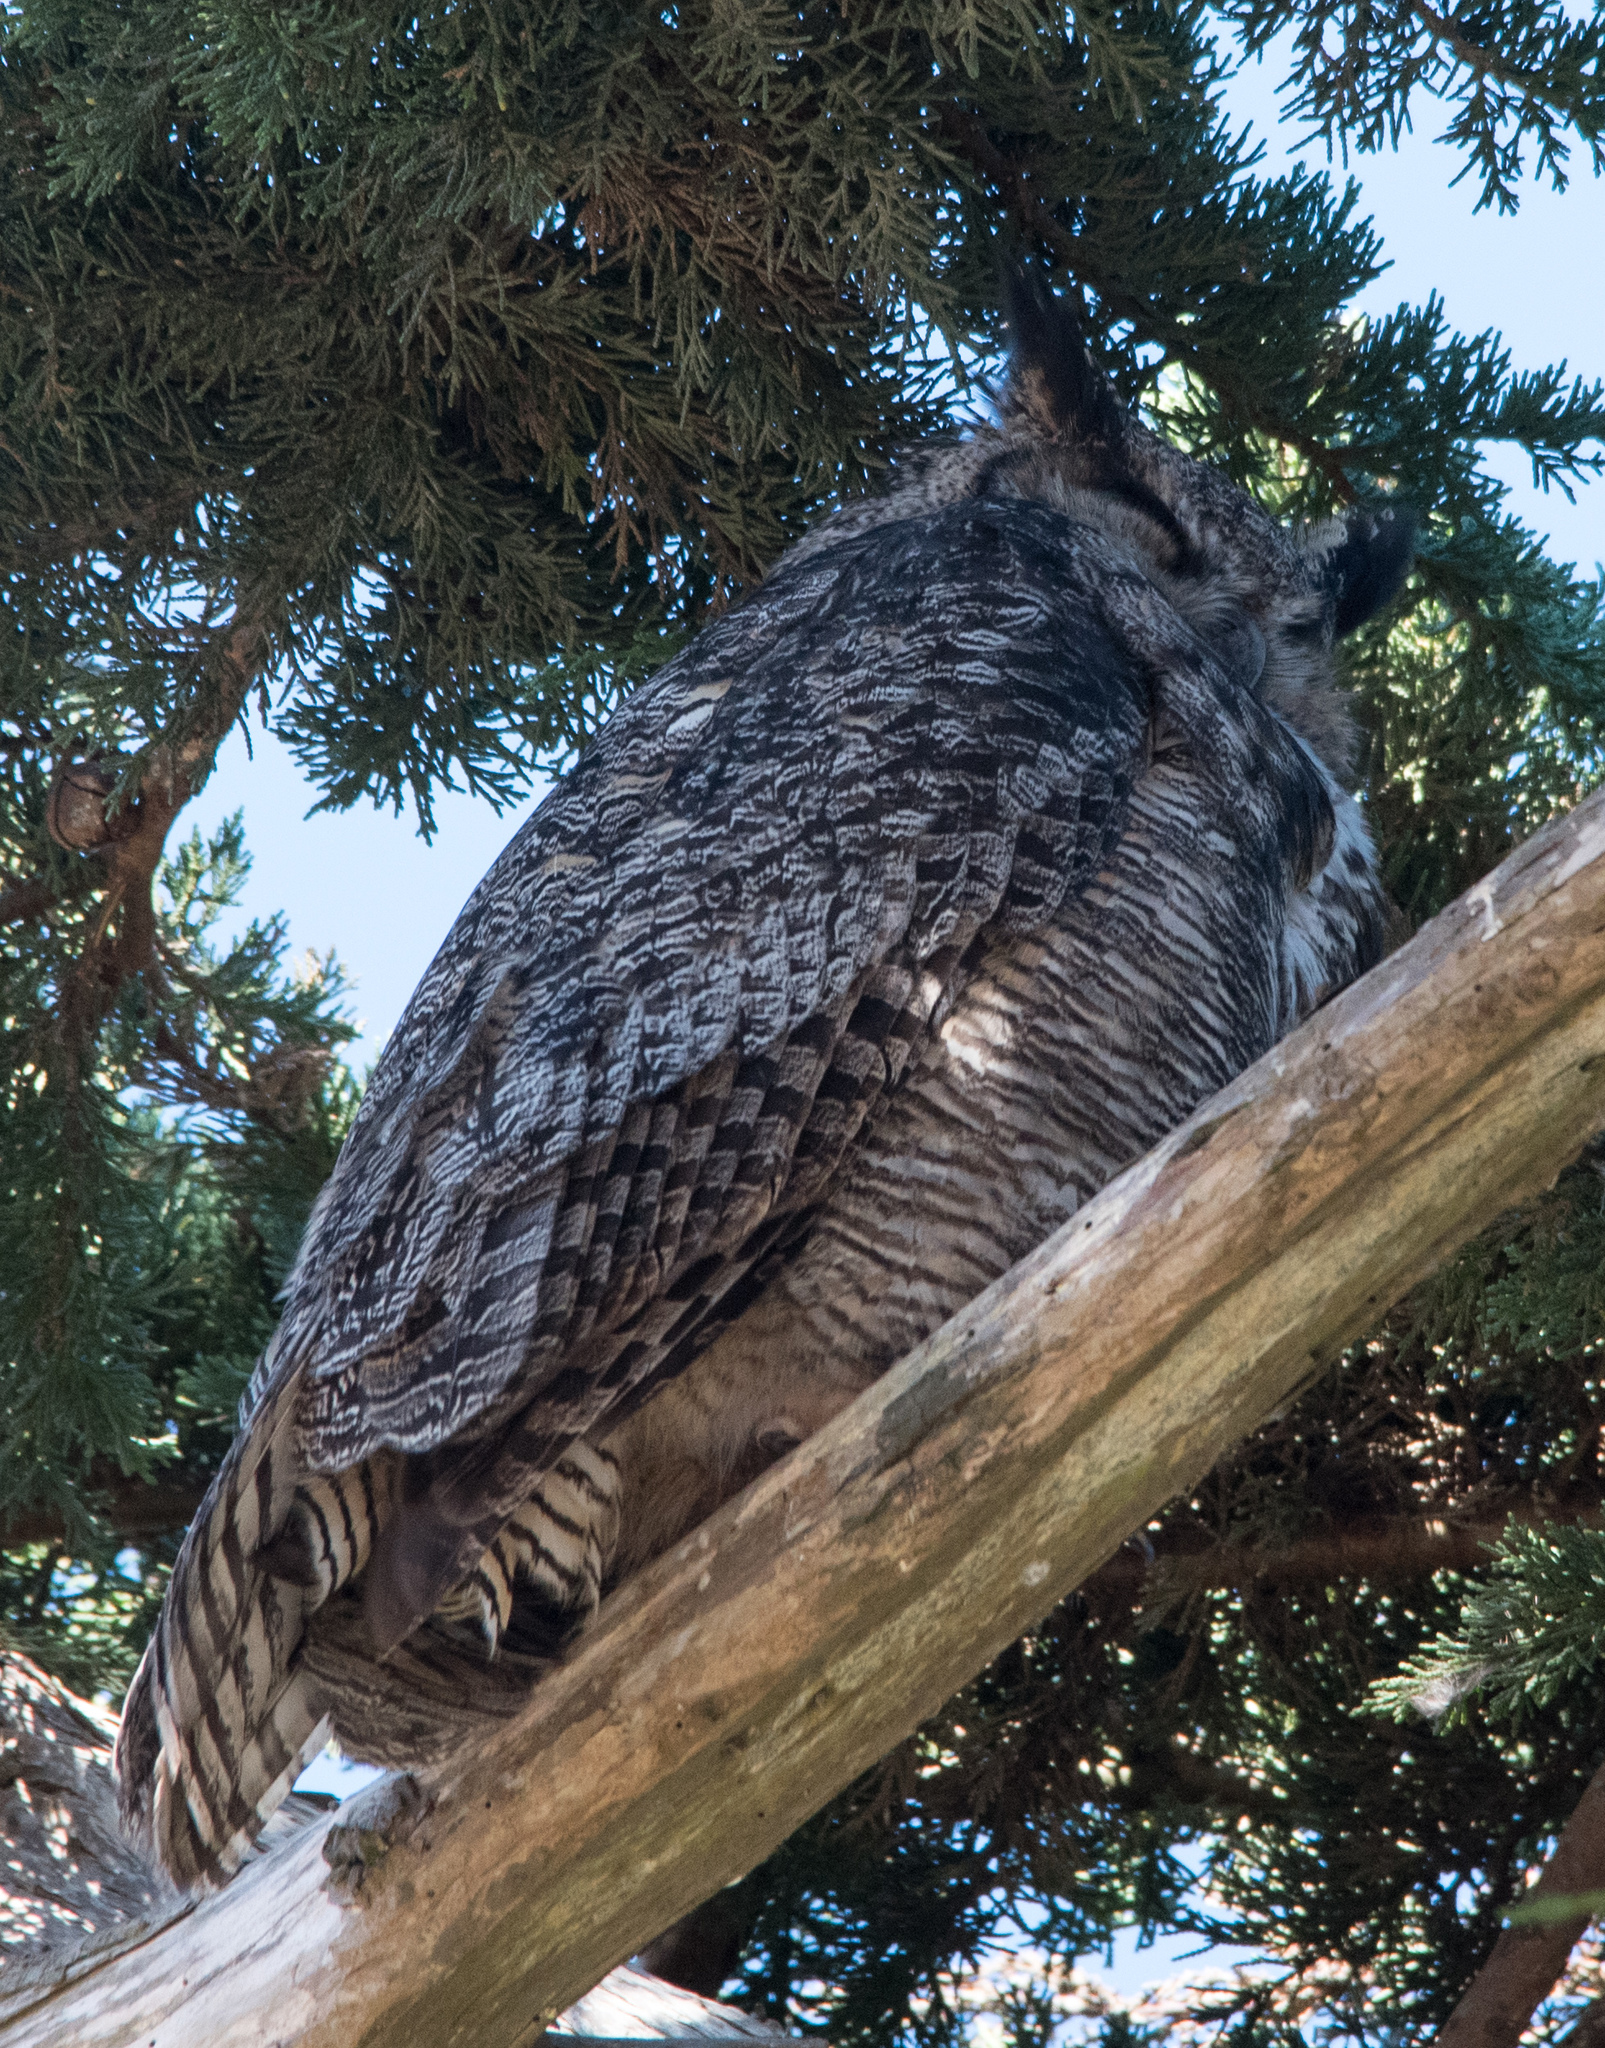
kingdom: Animalia
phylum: Chordata
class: Aves
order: Strigiformes
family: Strigidae
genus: Bubo
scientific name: Bubo virginianus
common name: Great horned owl
